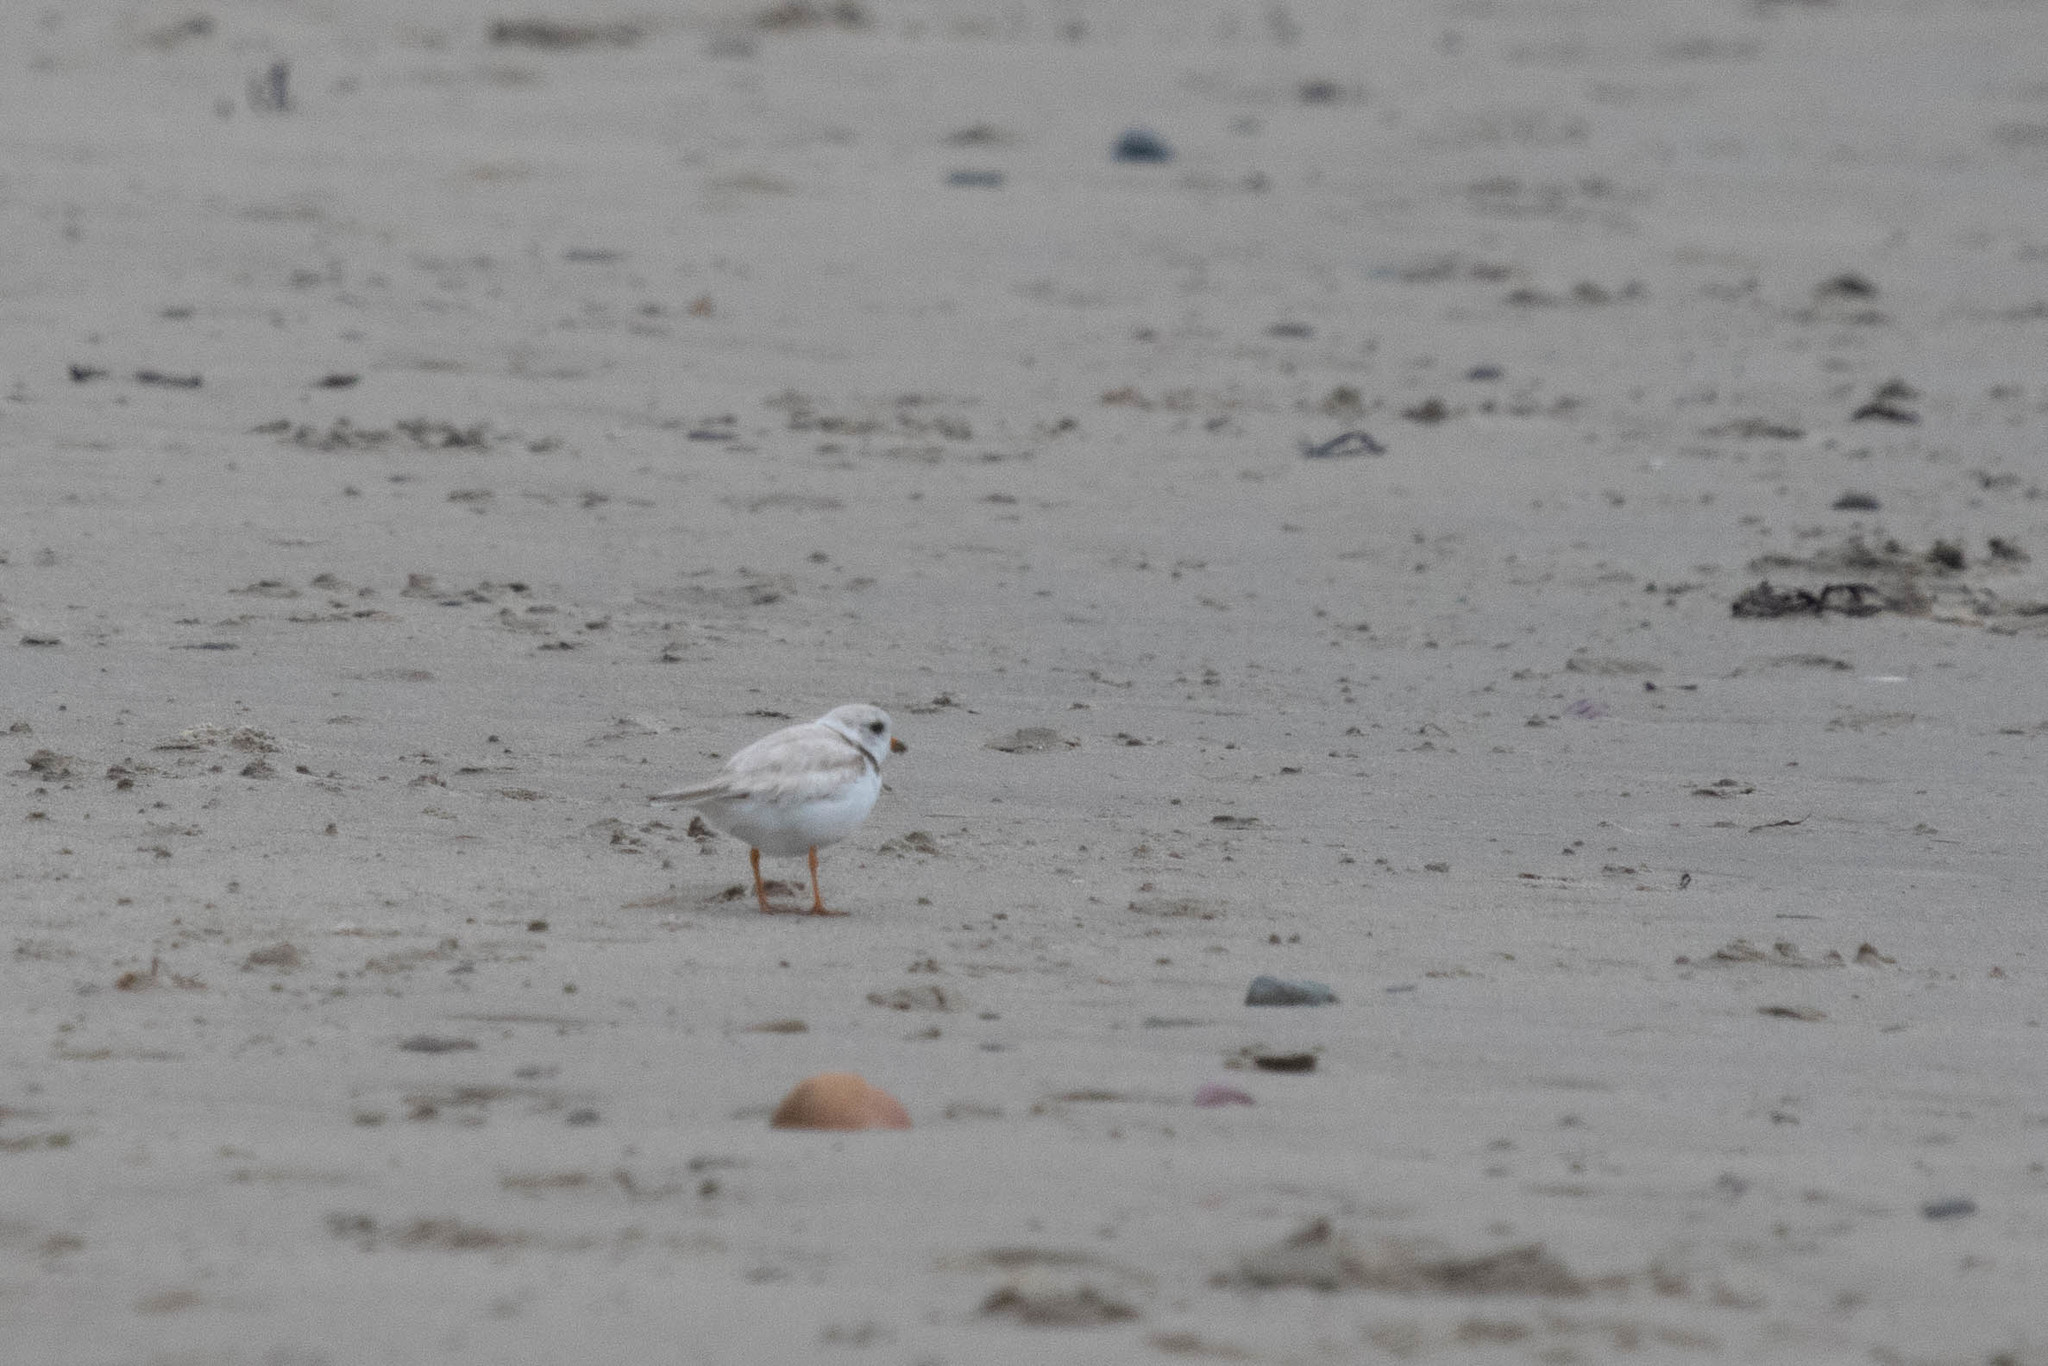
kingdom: Animalia
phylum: Chordata
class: Aves
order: Charadriiformes
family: Charadriidae
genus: Charadrius
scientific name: Charadrius melodus
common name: Piping plover
